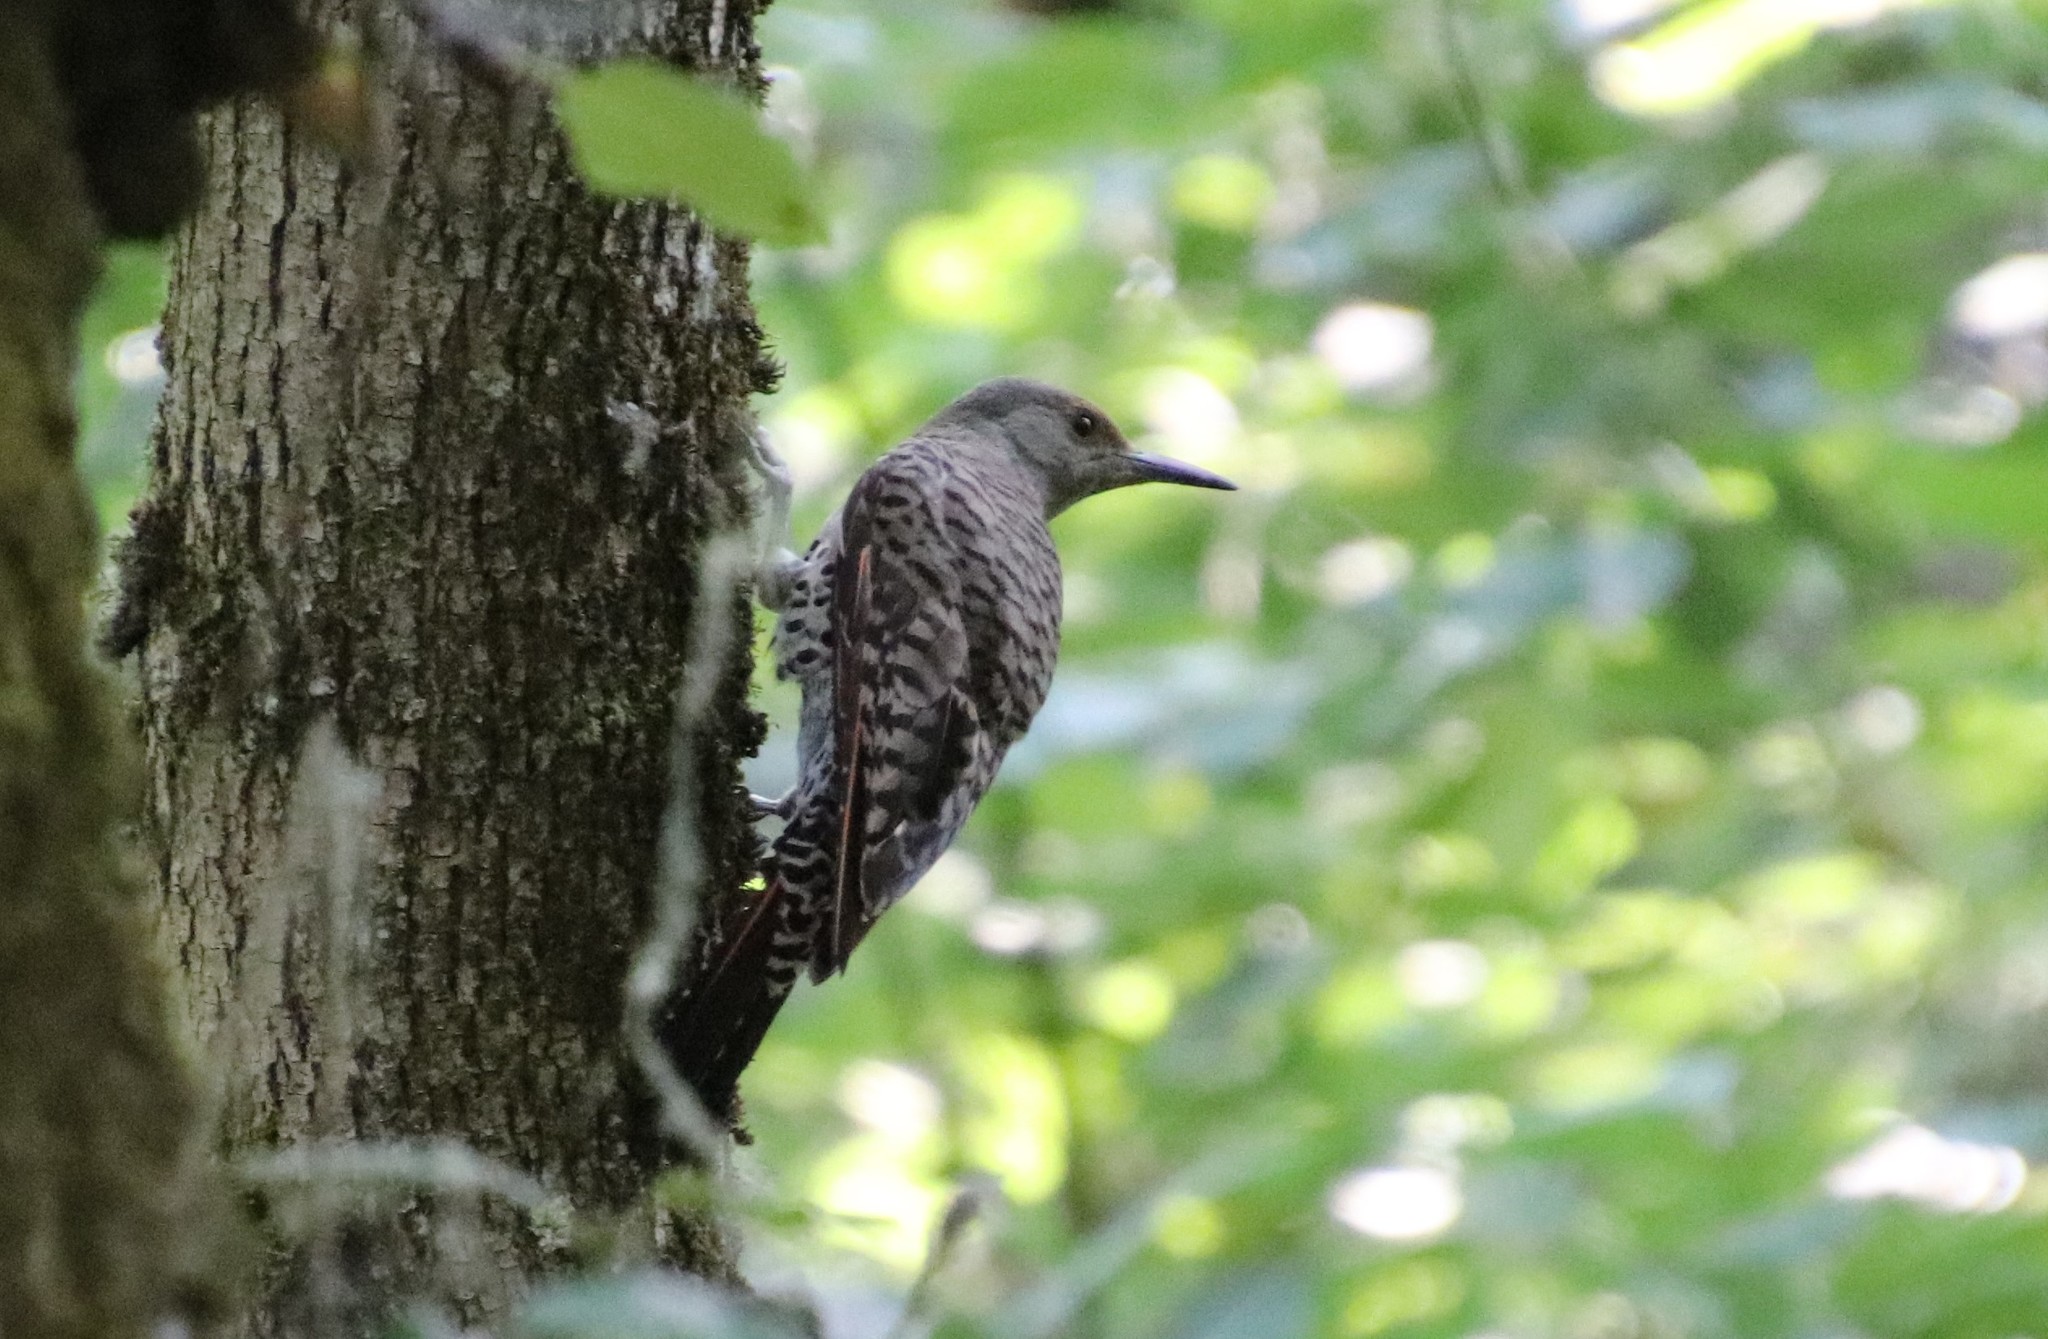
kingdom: Animalia
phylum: Chordata
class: Aves
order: Piciformes
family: Picidae
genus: Colaptes
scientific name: Colaptes auratus
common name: Northern flicker
